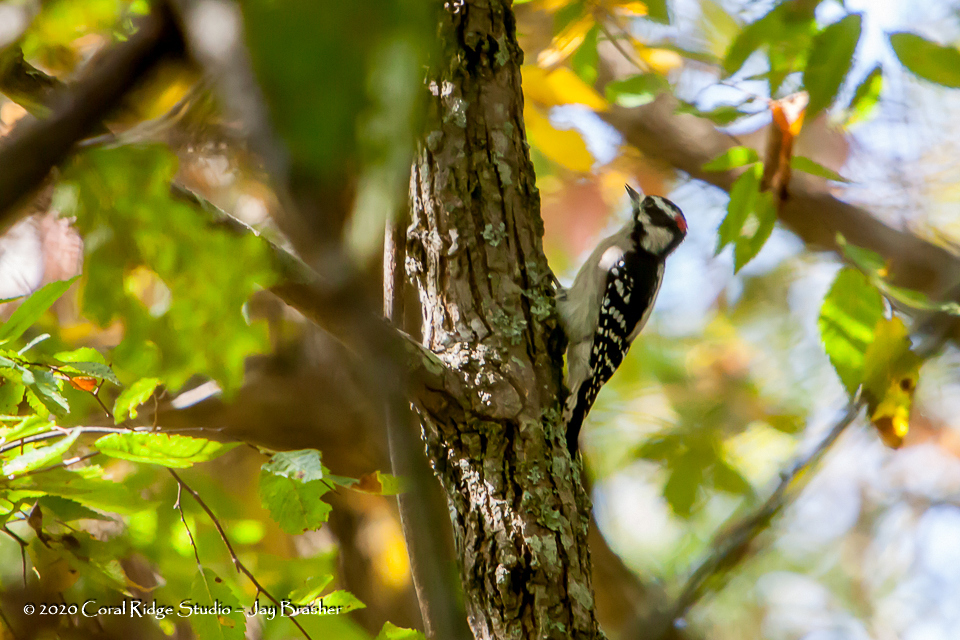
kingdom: Animalia
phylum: Chordata
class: Aves
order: Piciformes
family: Picidae
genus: Dryobates
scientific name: Dryobates pubescens
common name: Downy woodpecker
